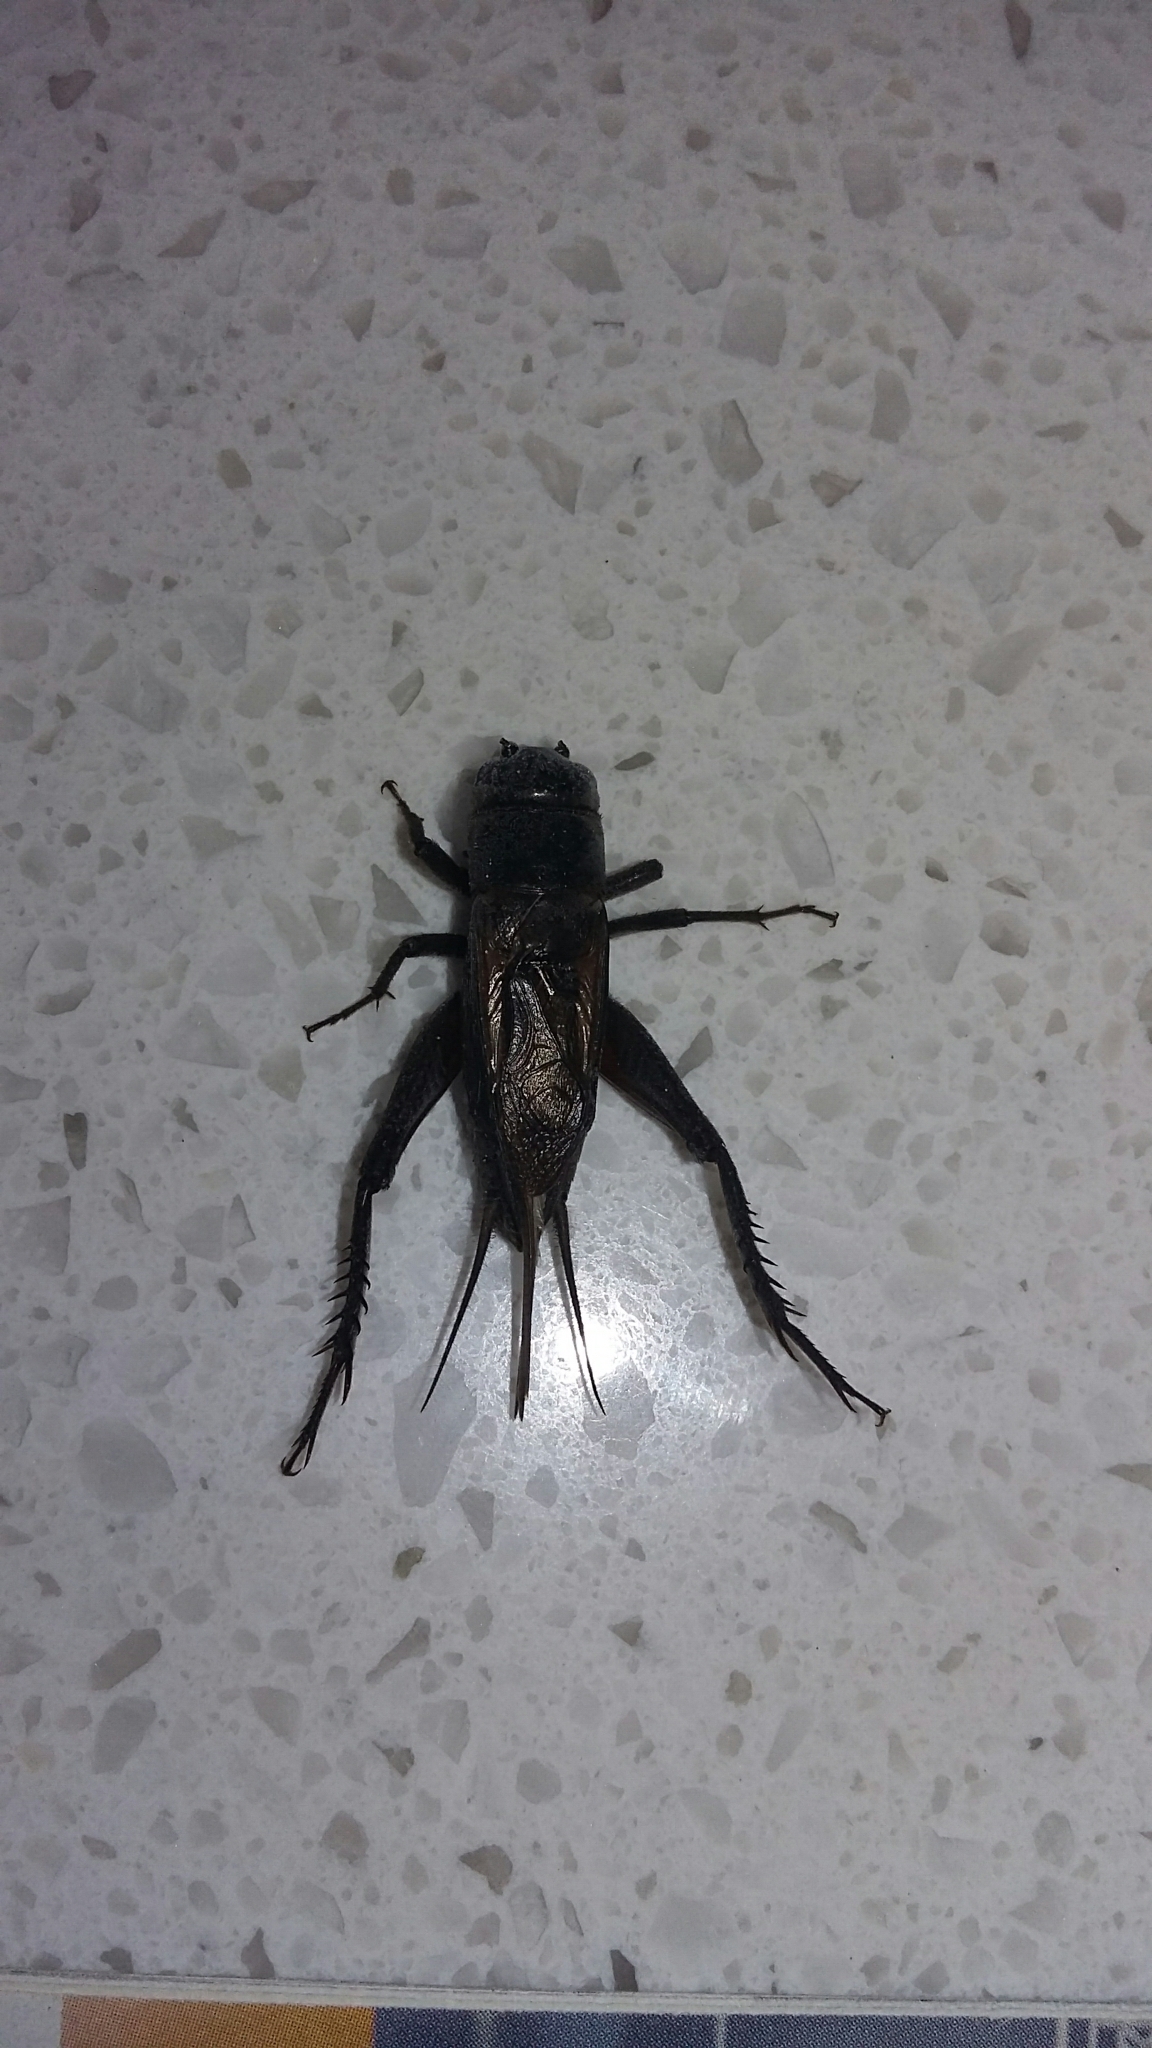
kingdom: Animalia
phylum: Arthropoda
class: Insecta
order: Orthoptera
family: Gryllidae
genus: Teleogryllus
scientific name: Teleogryllus commodus
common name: Black field cricket
